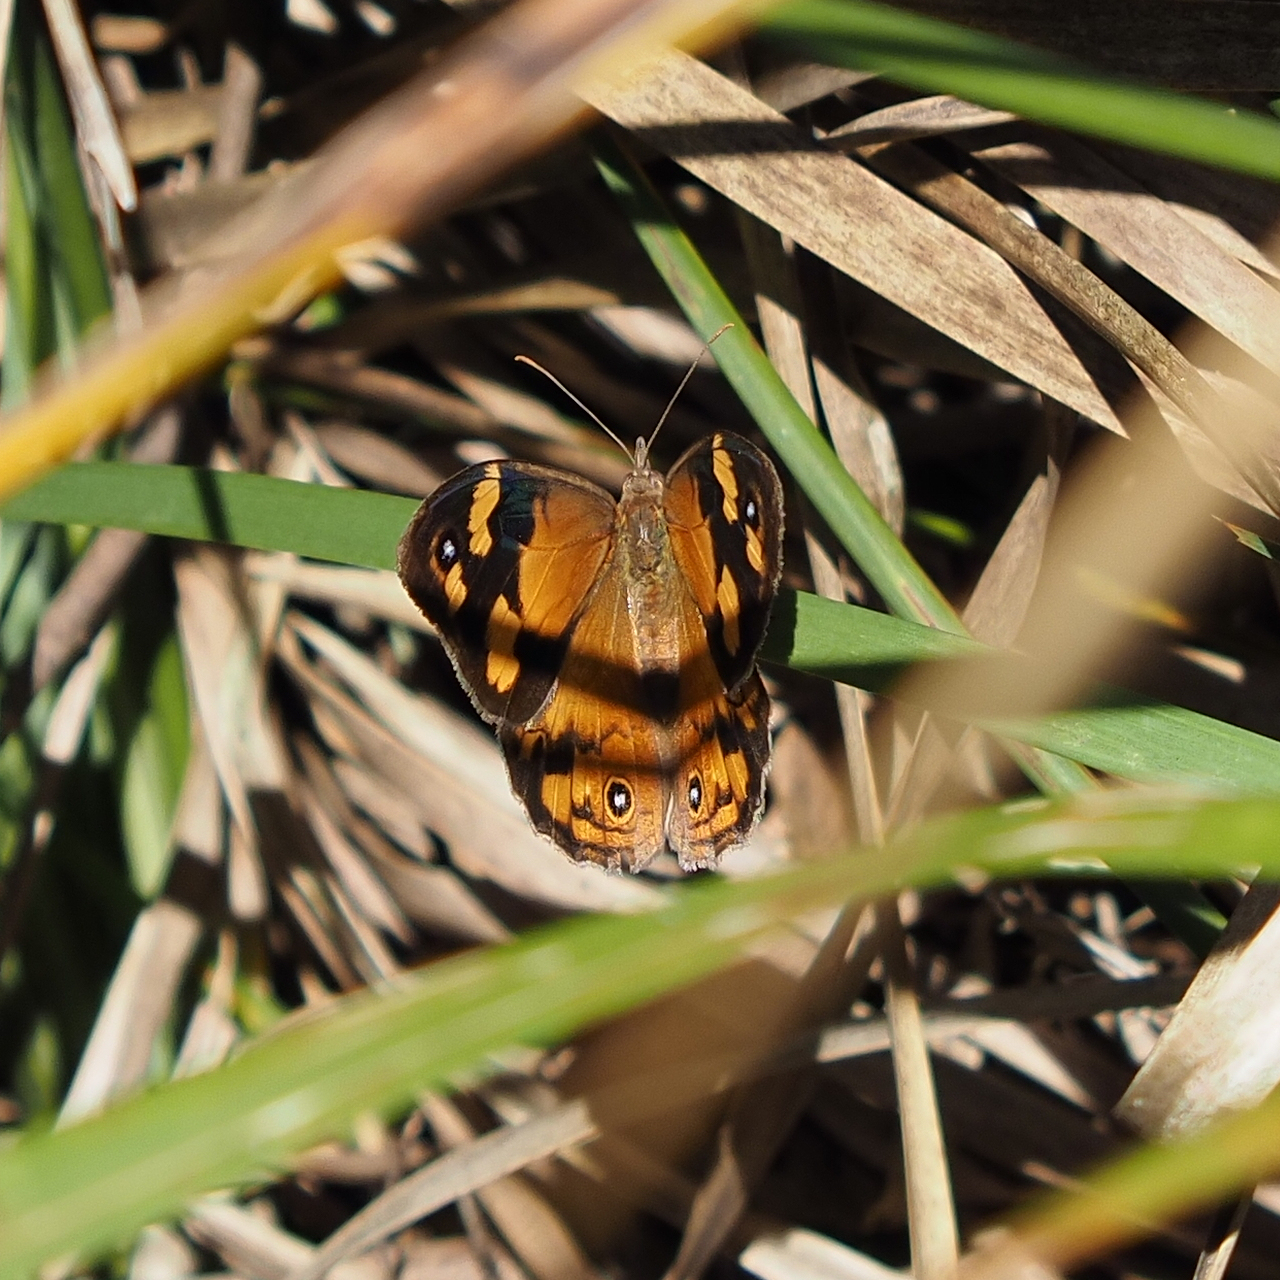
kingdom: Animalia
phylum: Arthropoda
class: Insecta
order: Lepidoptera
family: Nymphalidae
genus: Heteronympha
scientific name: Heteronympha merope
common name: Common brown
